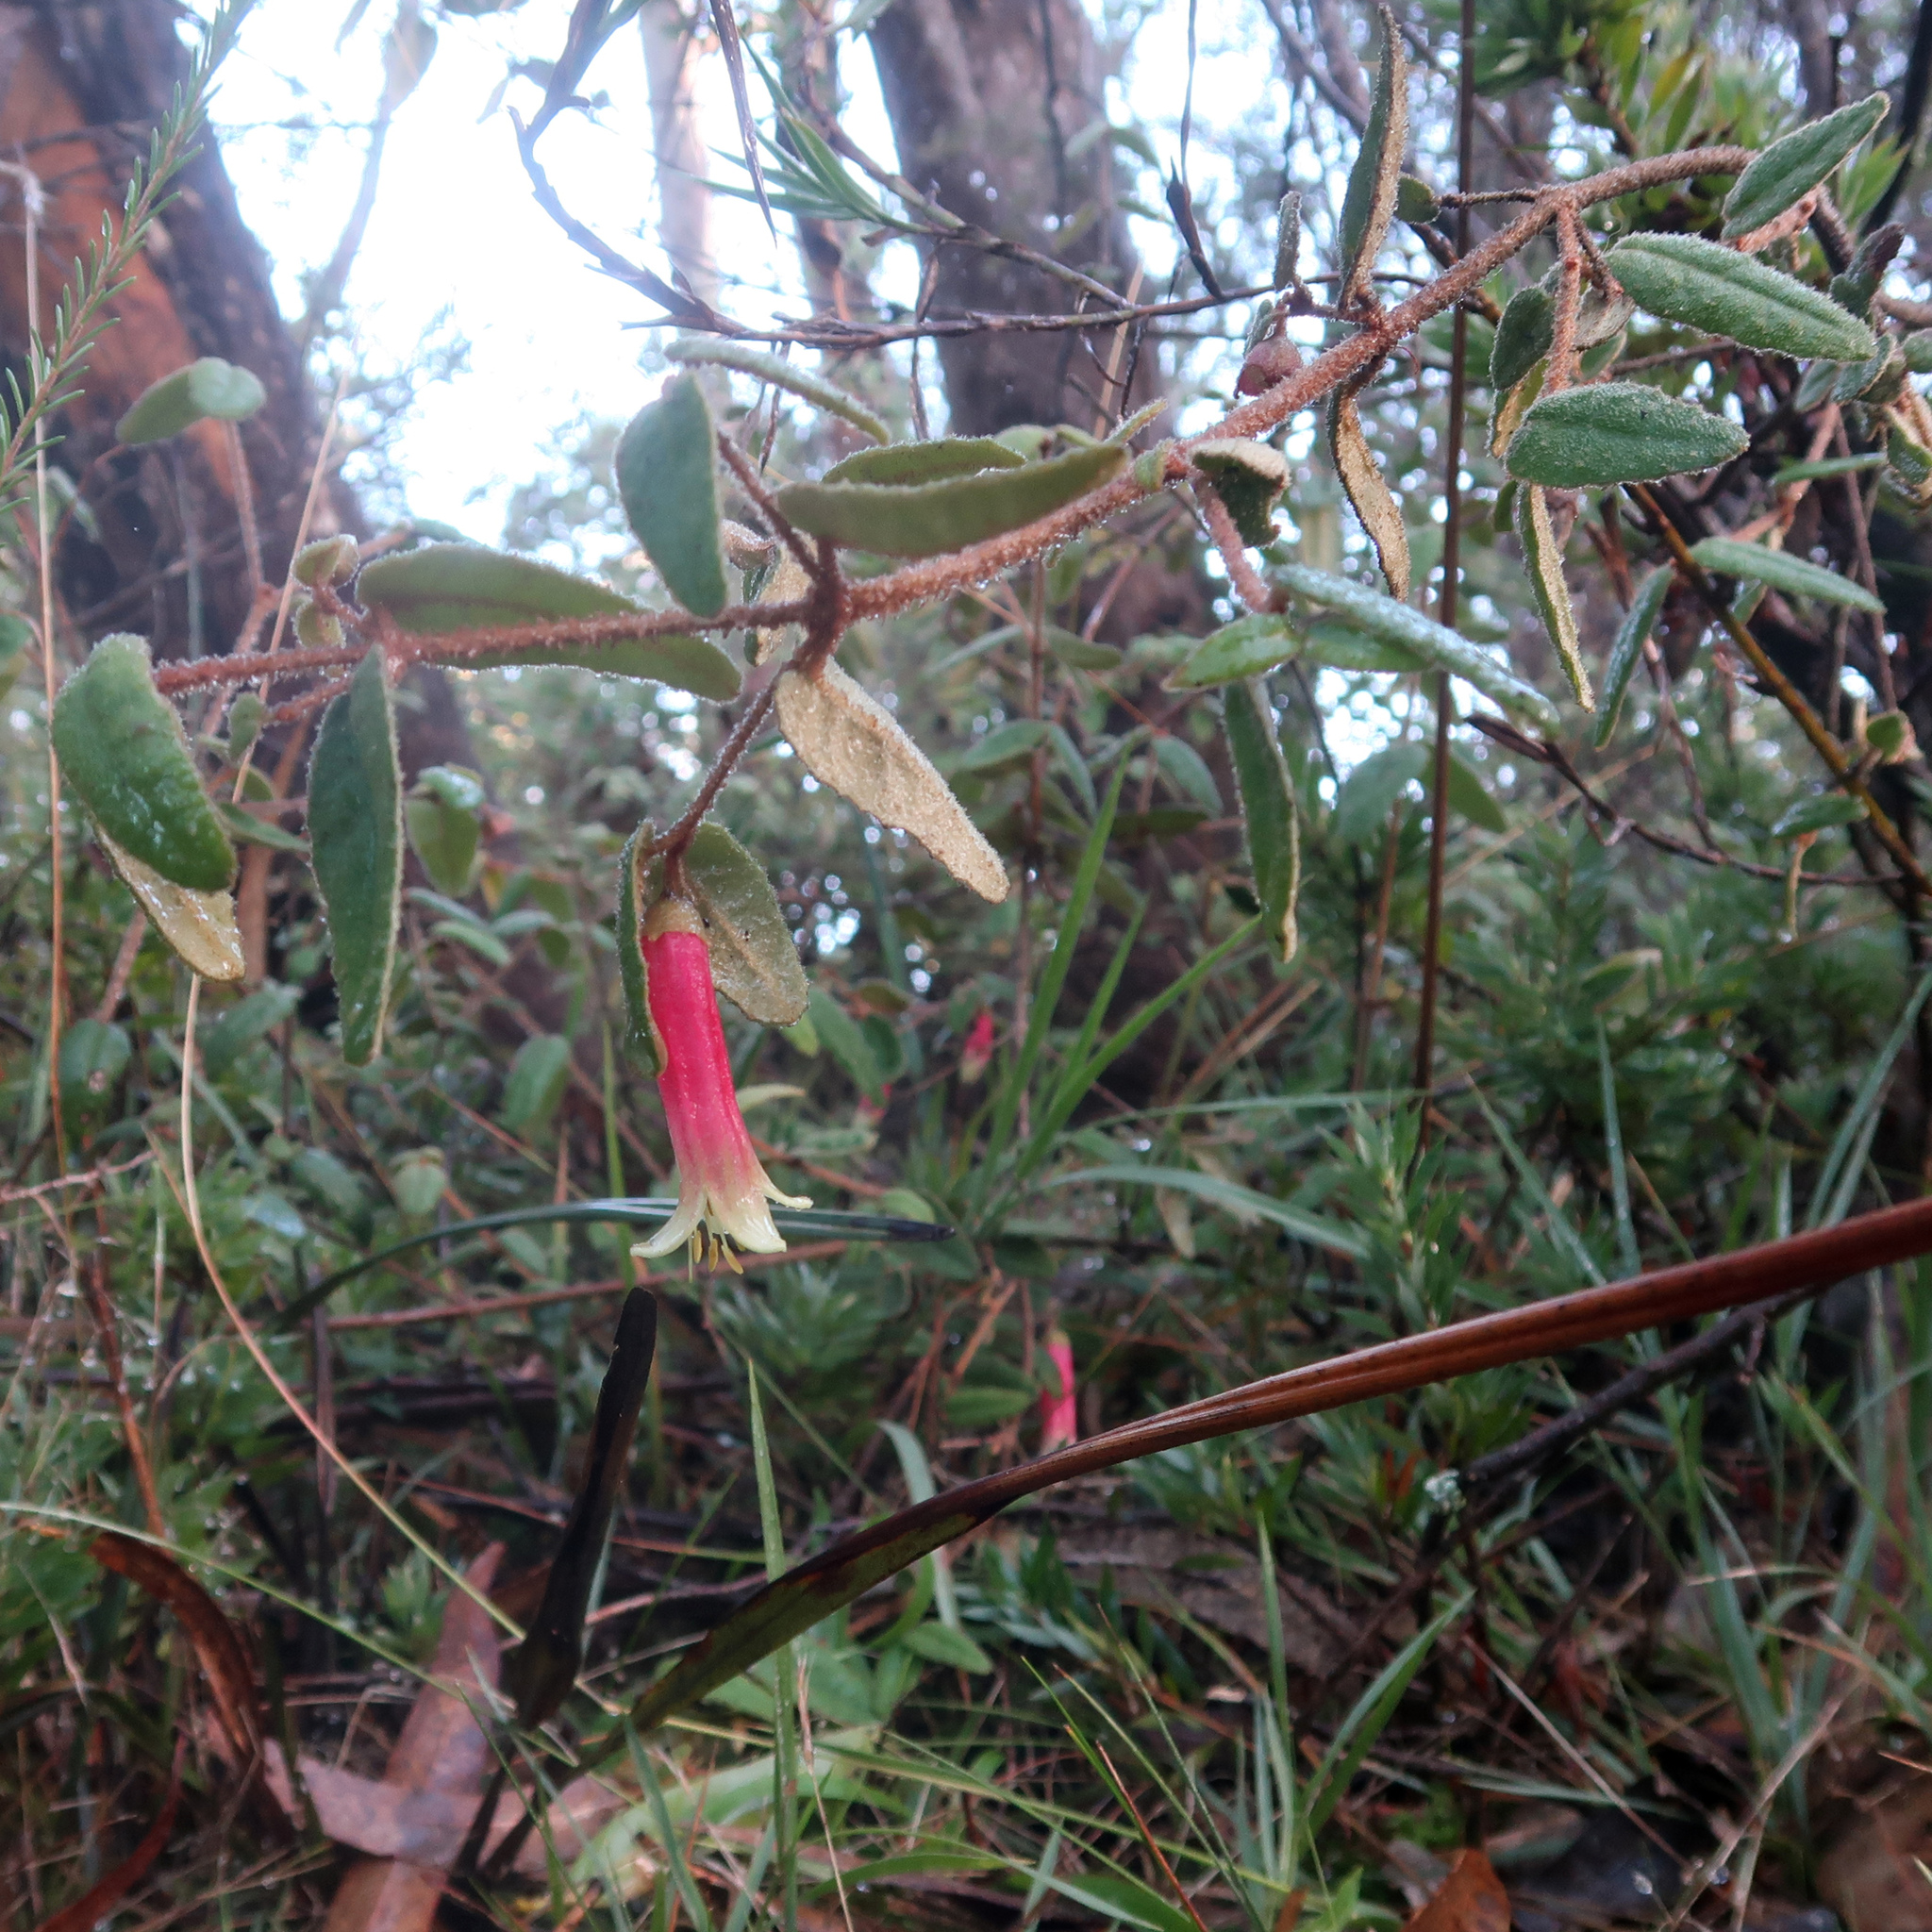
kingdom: Plantae
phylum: Tracheophyta
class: Magnoliopsida
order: Sapindales
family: Rutaceae
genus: Correa
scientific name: Correa reflexa
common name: Common correa
